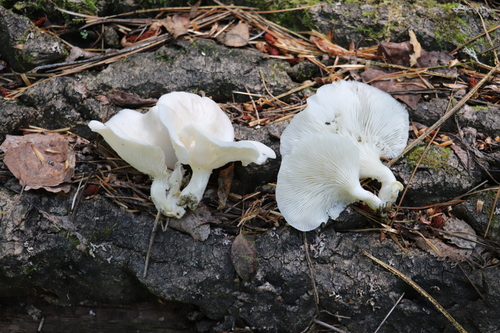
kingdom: Fungi
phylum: Basidiomycota
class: Agaricomycetes
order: Agaricales
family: Pleurotaceae
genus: Pleurotus
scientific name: Pleurotus pulmonarius
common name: Pale oyster
